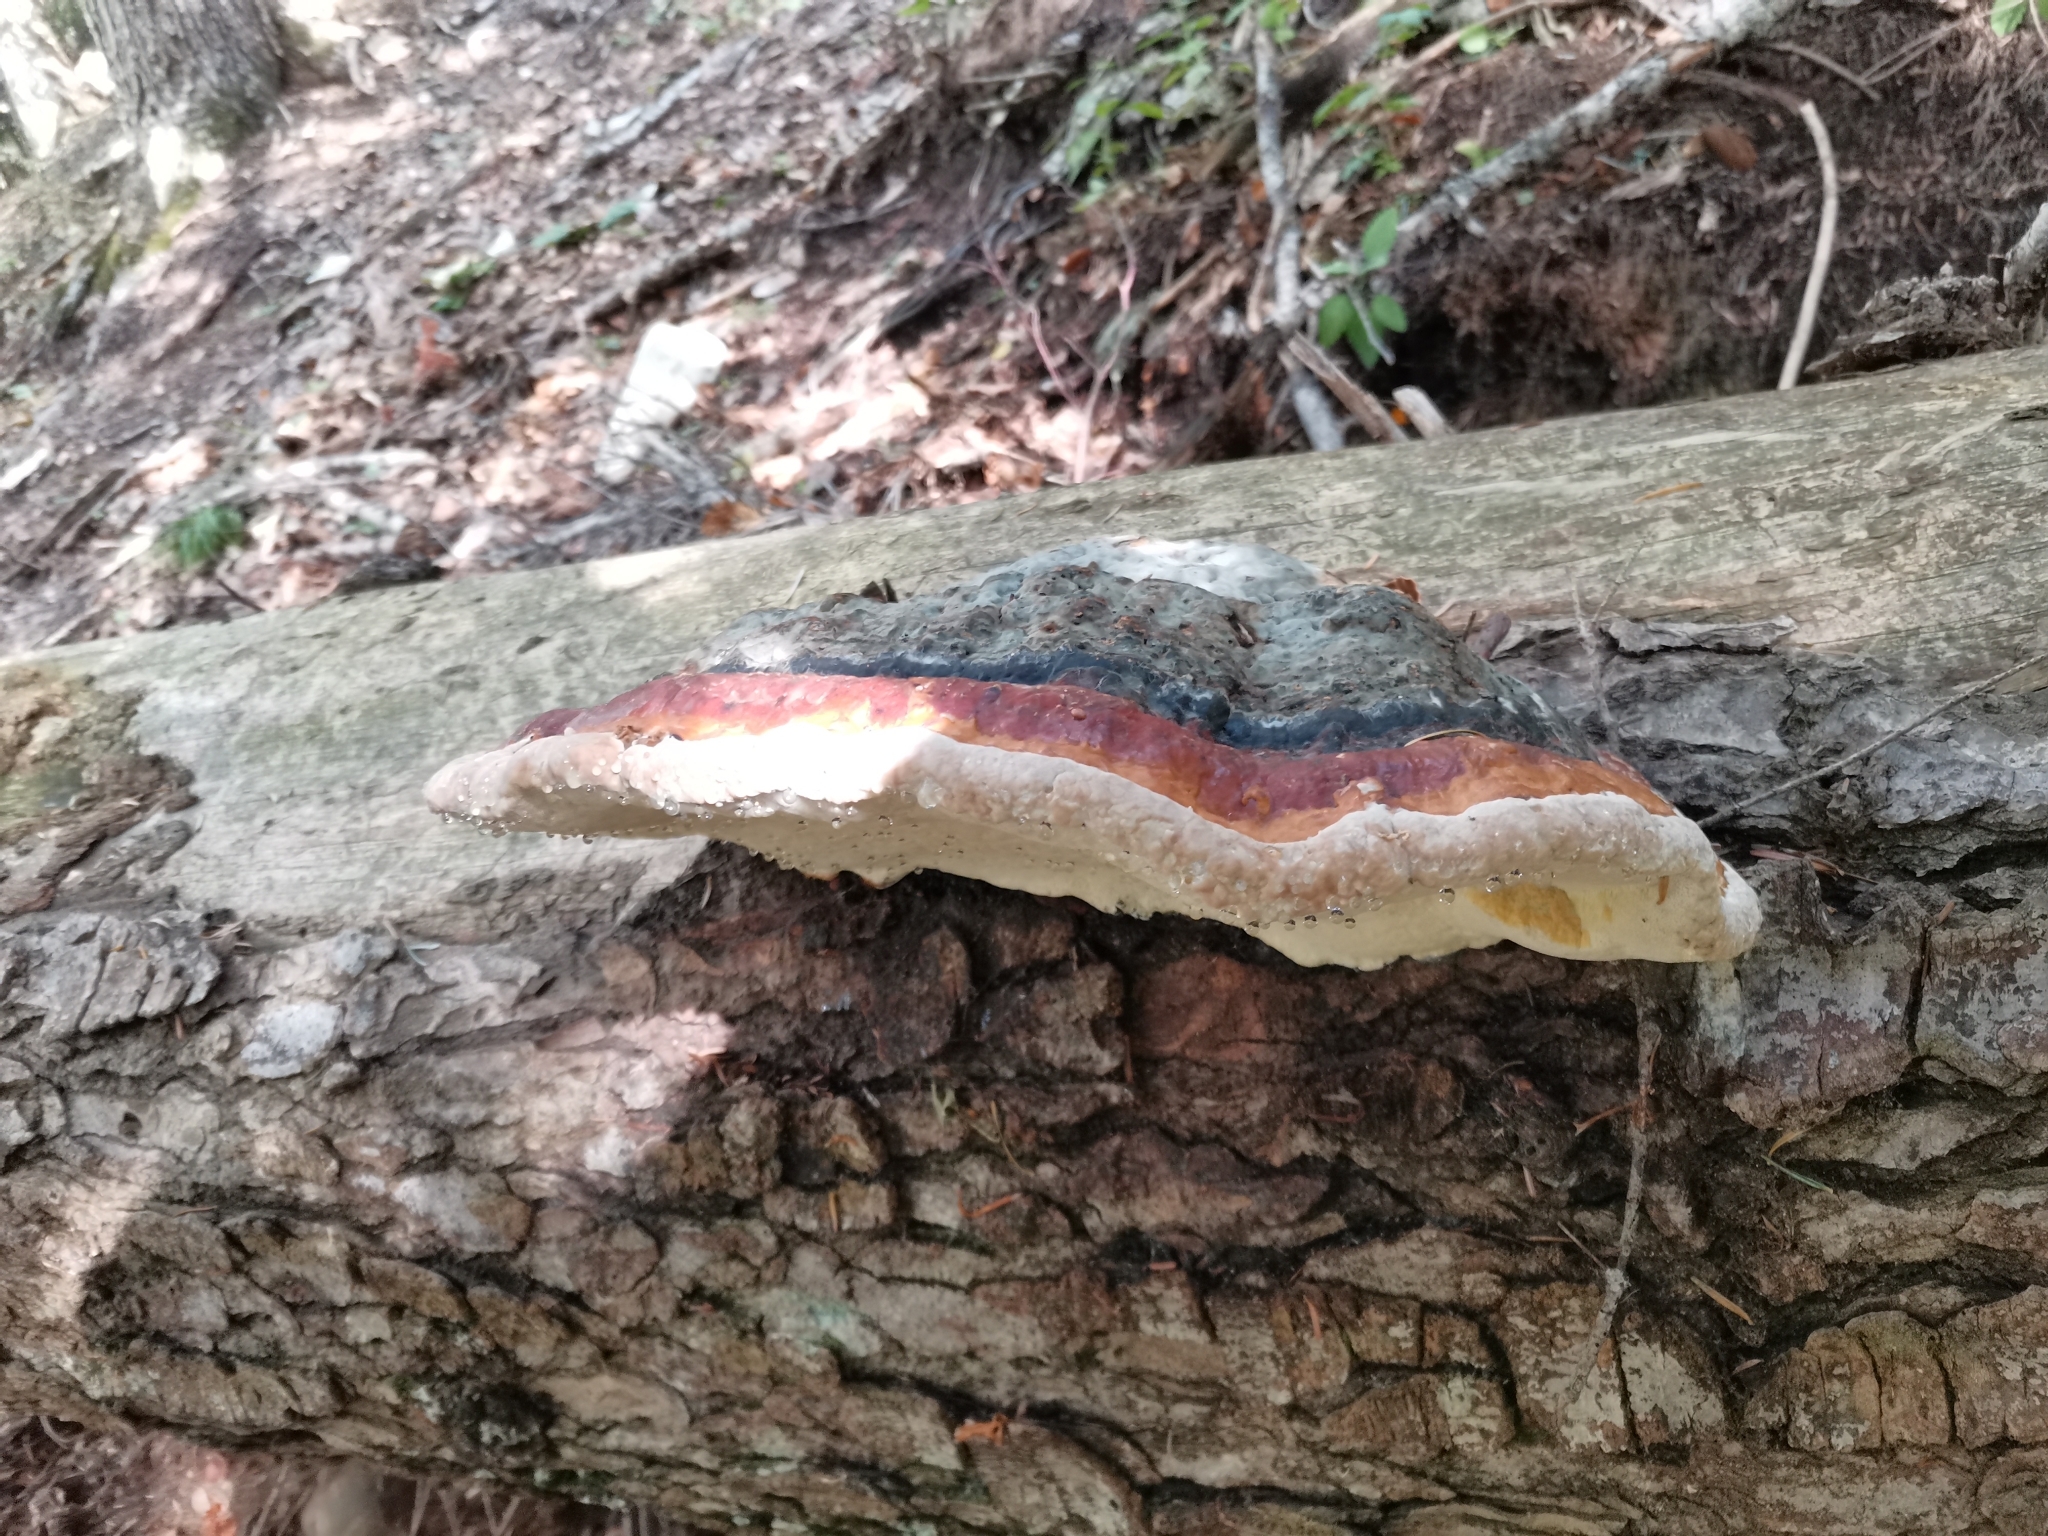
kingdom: Fungi
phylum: Basidiomycota
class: Agaricomycetes
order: Polyporales
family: Fomitopsidaceae
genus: Fomitopsis
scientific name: Fomitopsis pinicola
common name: Red-belted bracket
